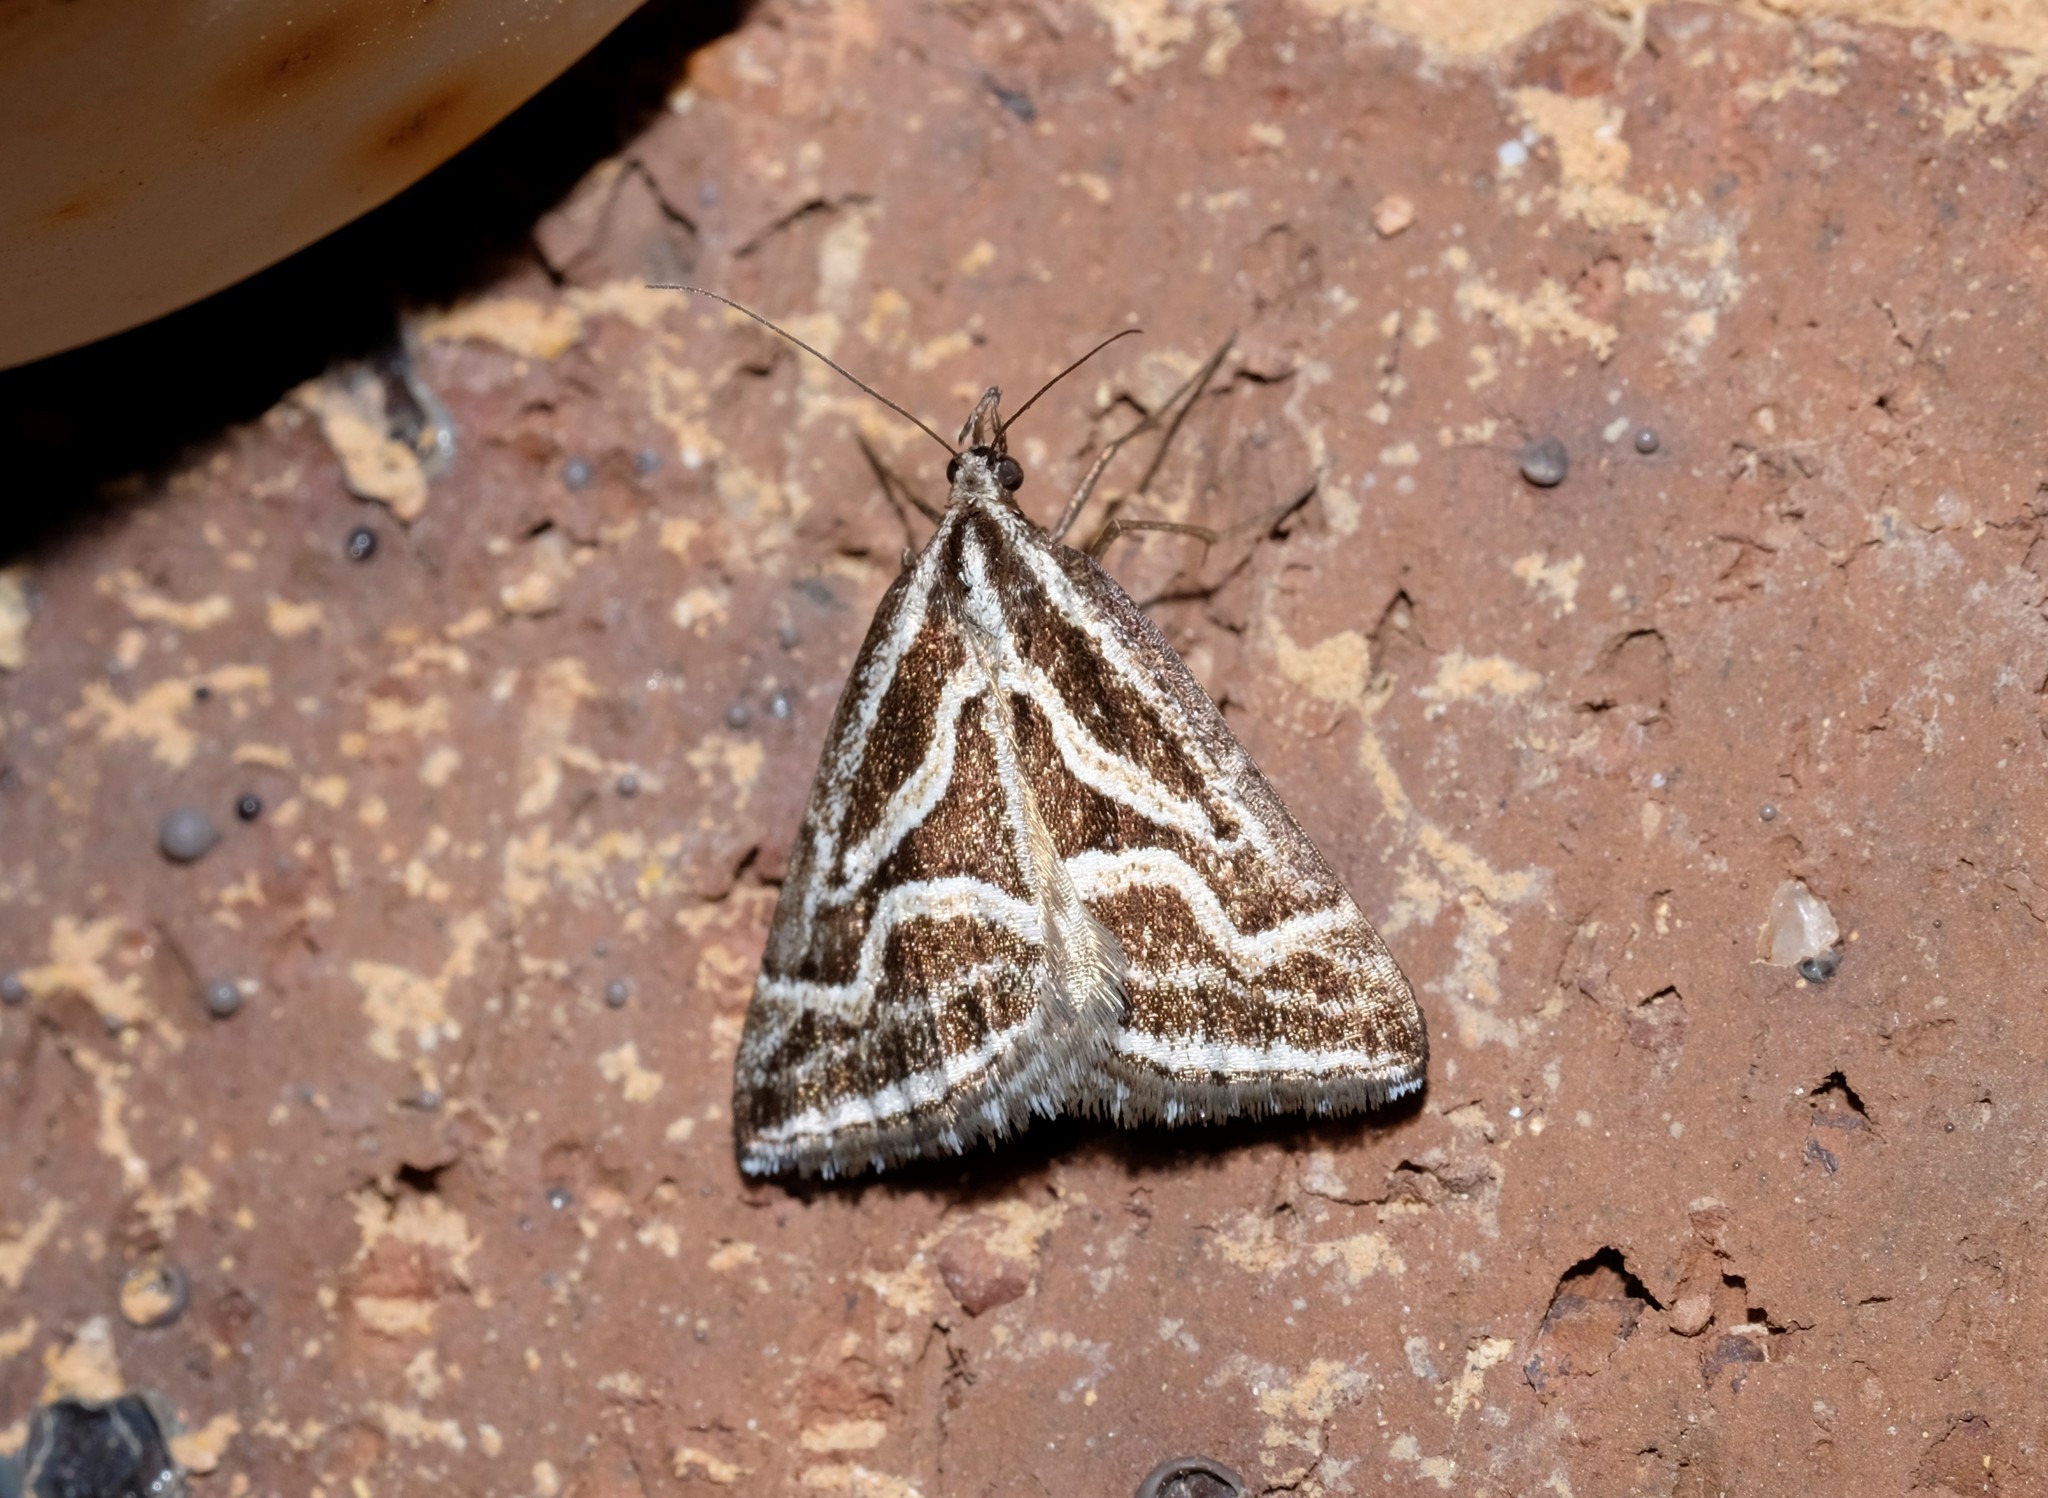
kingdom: Animalia
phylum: Arthropoda
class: Insecta
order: Lepidoptera
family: Geometridae
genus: Dichromodes
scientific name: Dichromodes confluaria
